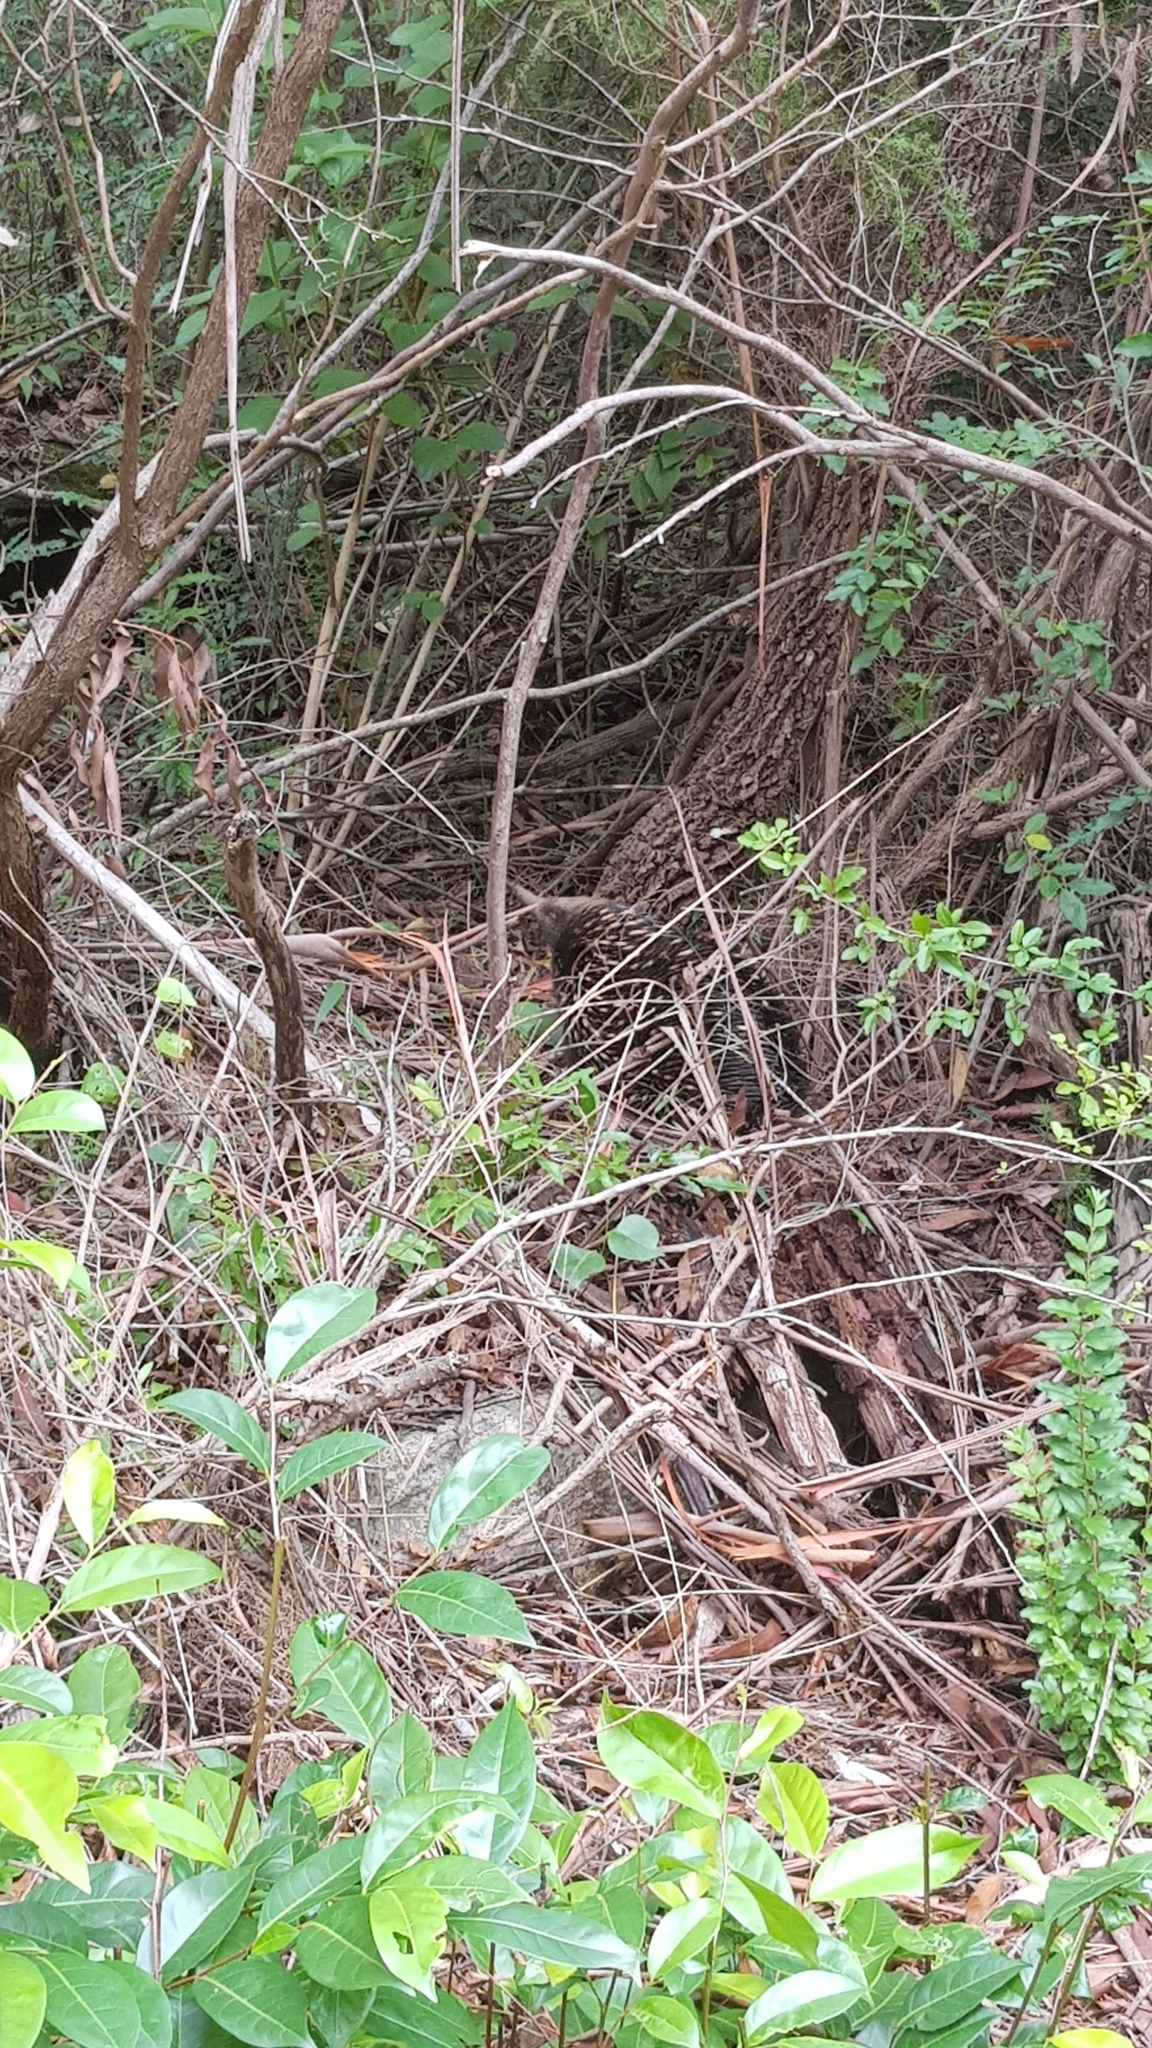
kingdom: Animalia
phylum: Chordata
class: Mammalia
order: Monotremata
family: Tachyglossidae
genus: Tachyglossus
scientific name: Tachyglossus aculeatus
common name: Short-beaked echidna
